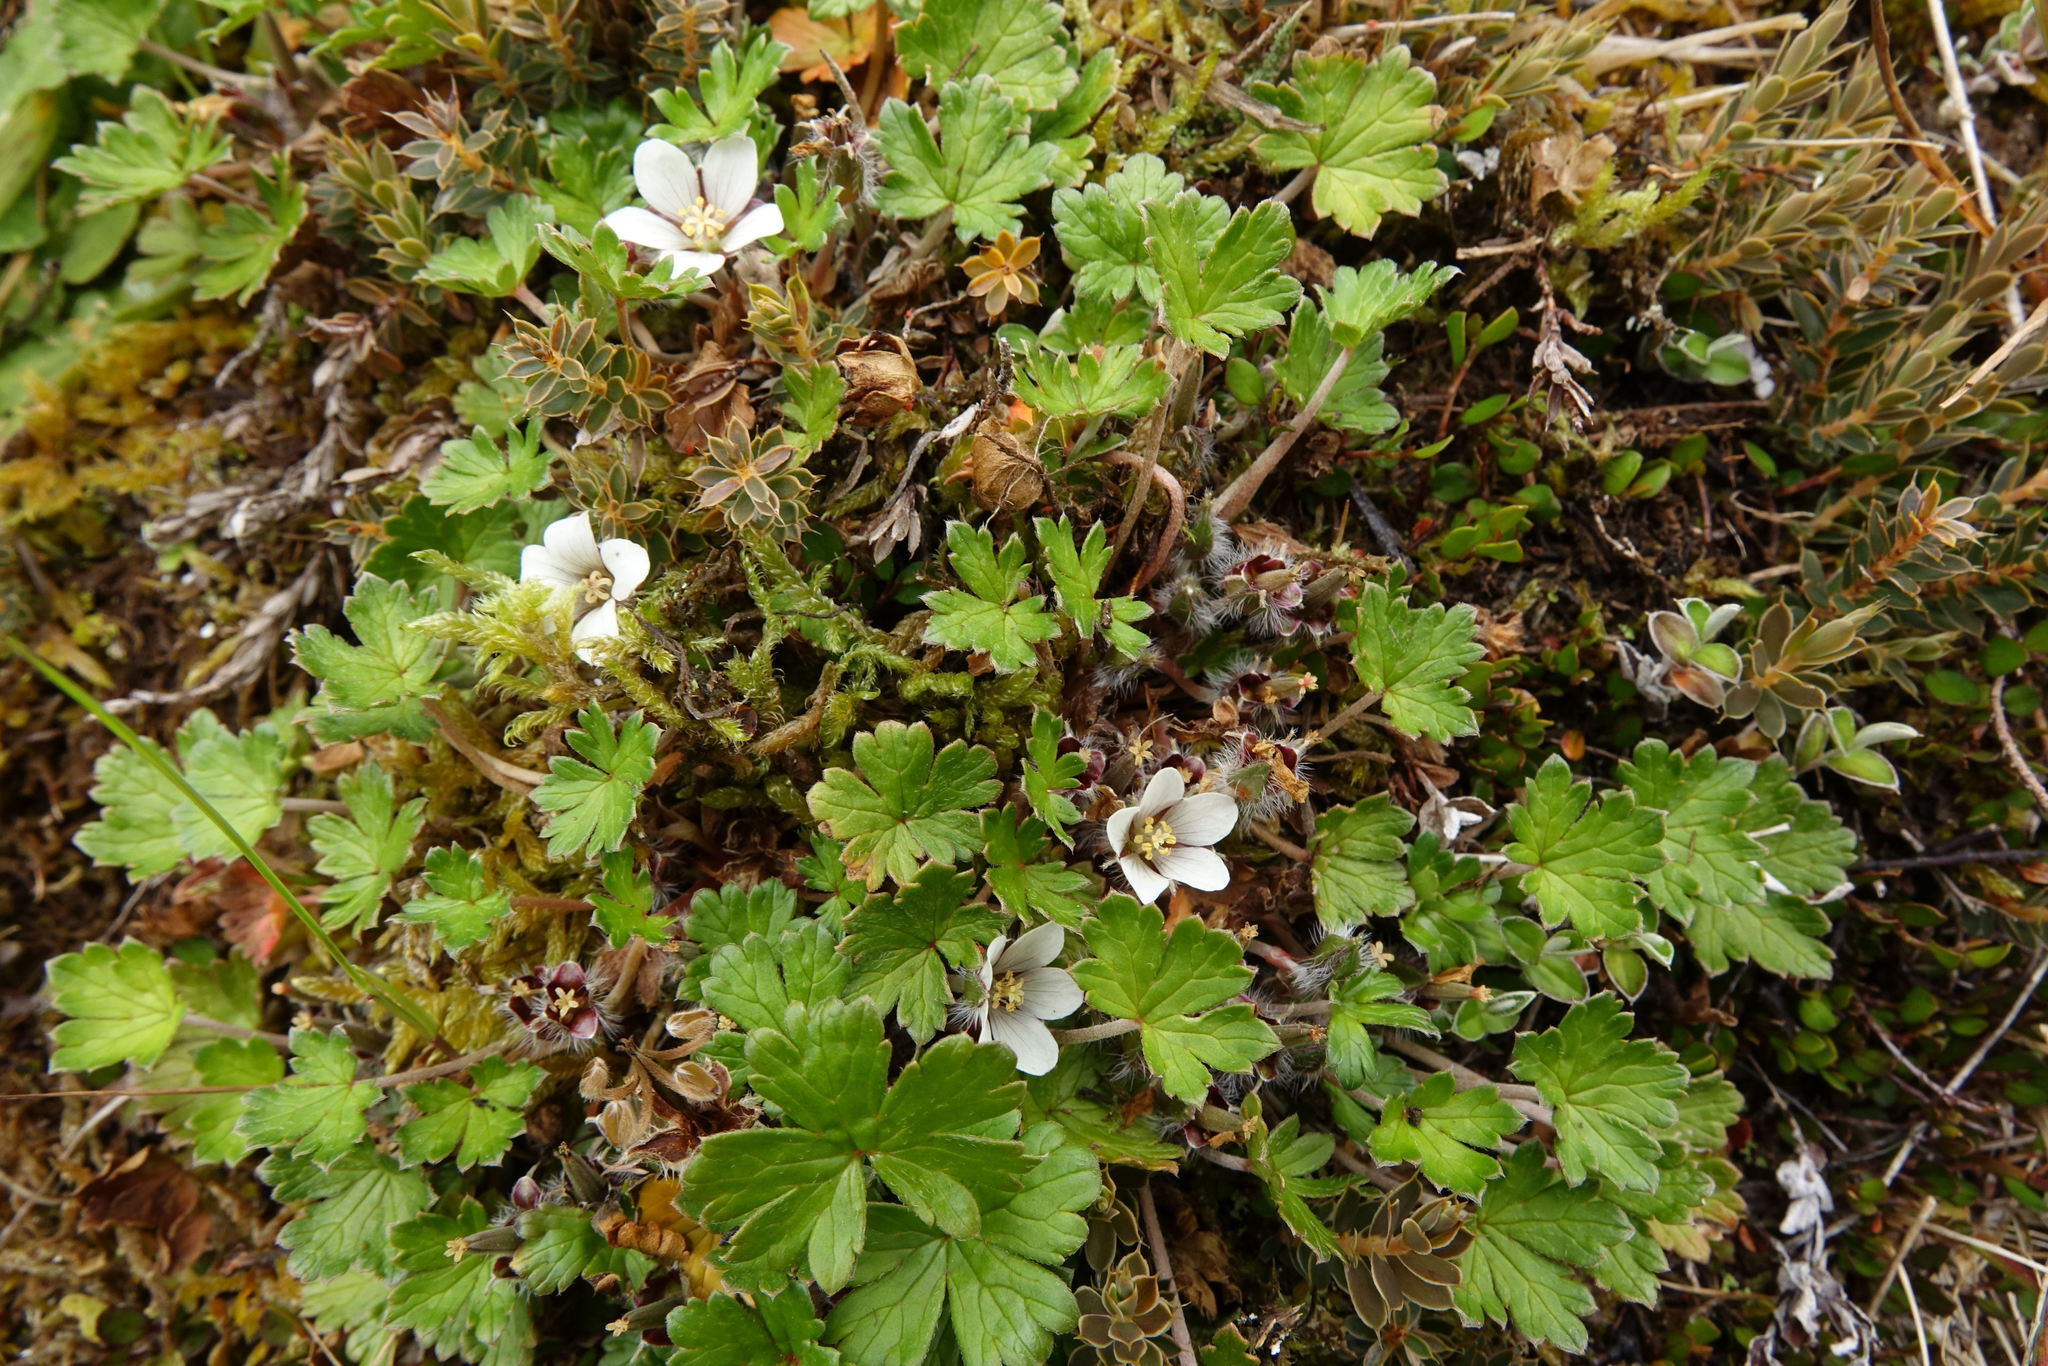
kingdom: Plantae
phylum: Tracheophyta
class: Magnoliopsida
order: Geraniales
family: Geraniaceae
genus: Geranium
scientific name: Geranium brevicaule
